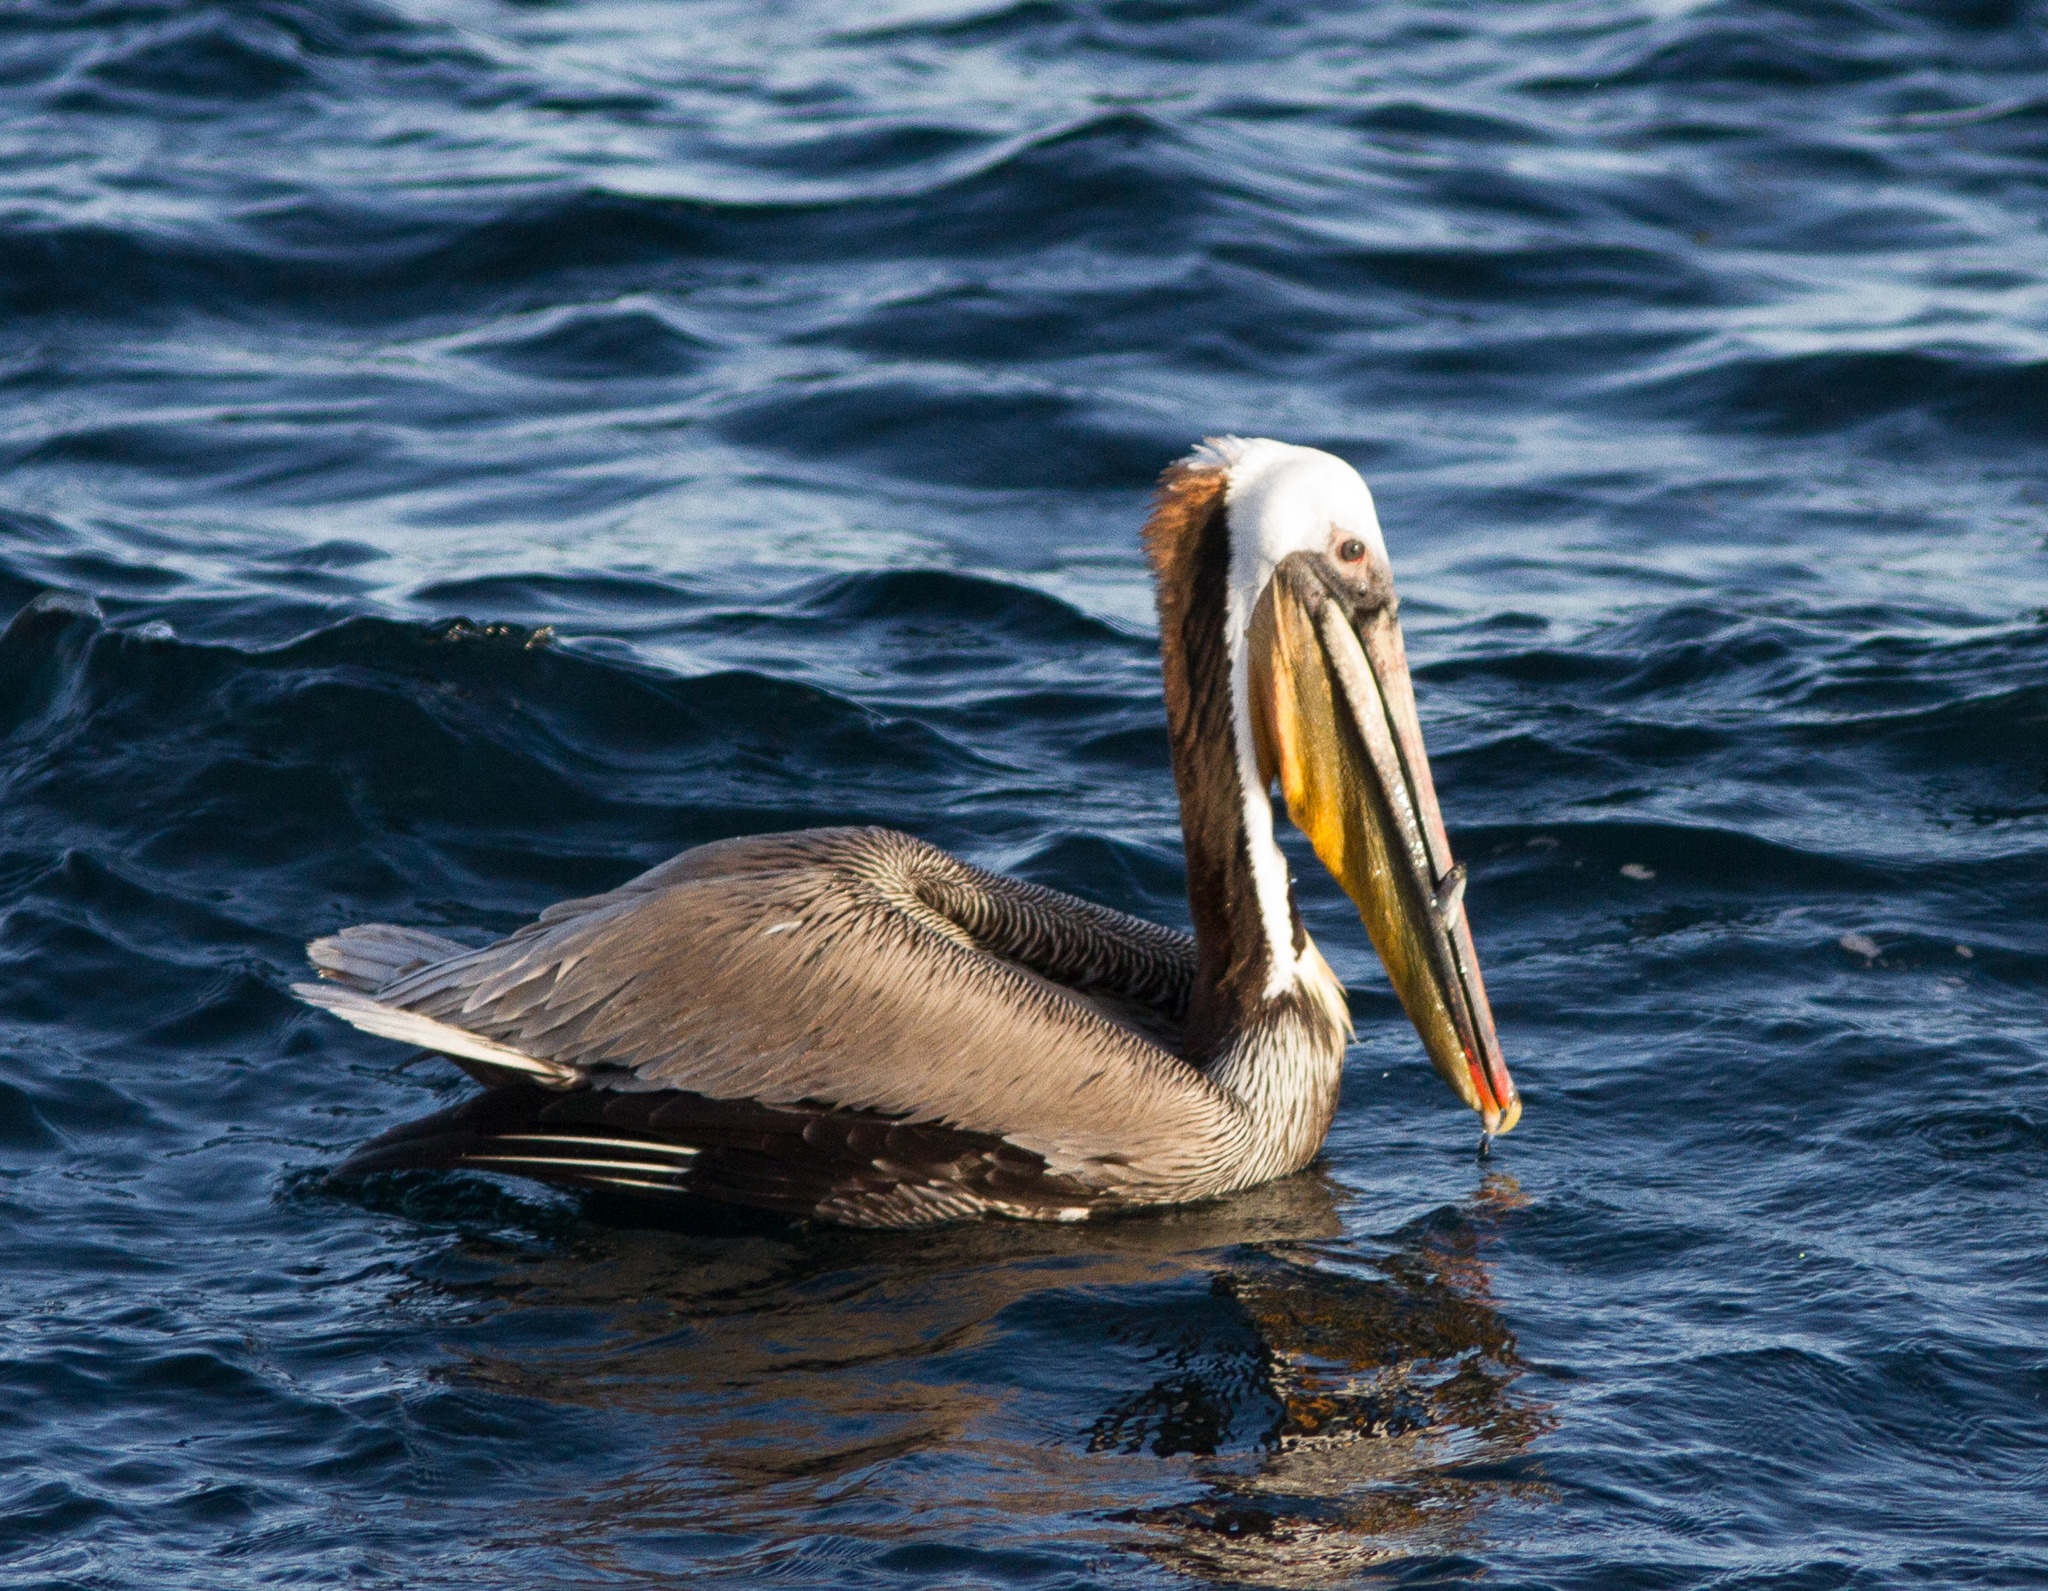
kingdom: Animalia
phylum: Chordata
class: Aves
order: Pelecaniformes
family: Pelecanidae
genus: Pelecanus
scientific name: Pelecanus occidentalis
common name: Brown pelican
